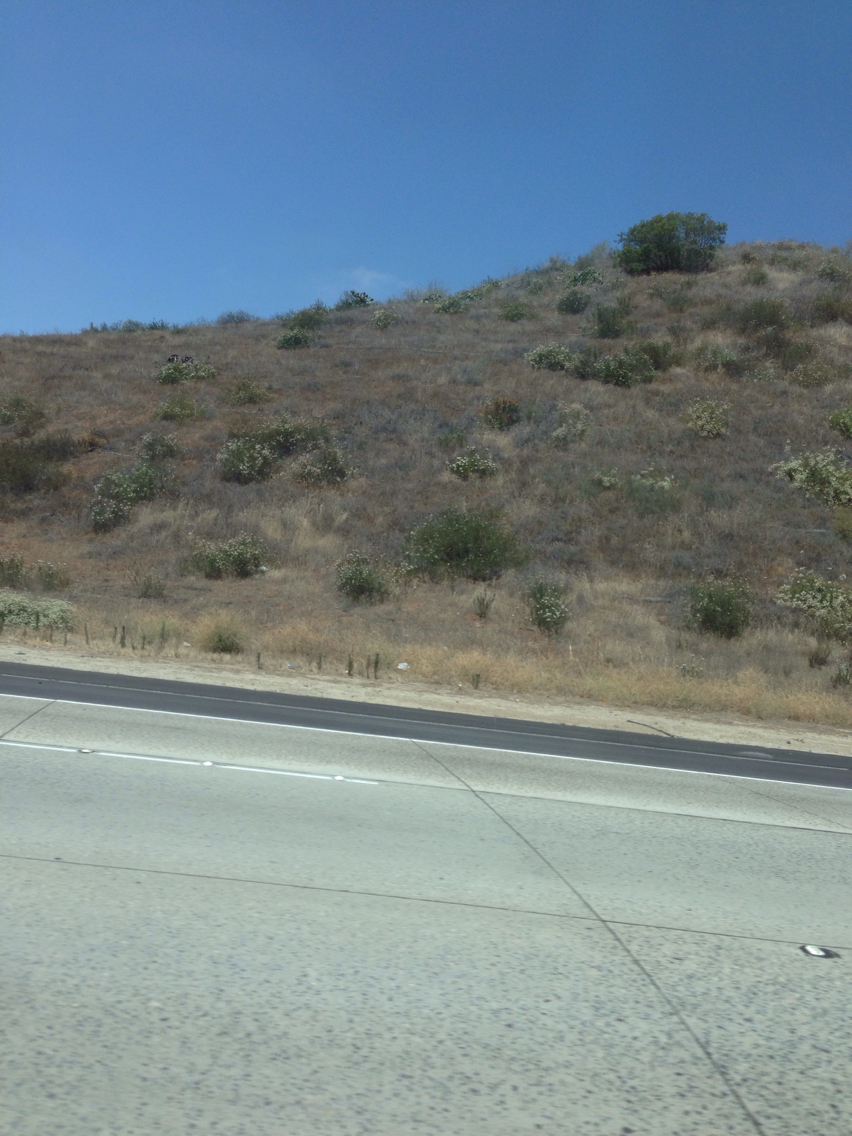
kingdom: Plantae
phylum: Tracheophyta
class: Magnoliopsida
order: Caryophyllales
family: Polygonaceae
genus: Eriogonum
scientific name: Eriogonum fasciculatum
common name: California wild buckwheat
